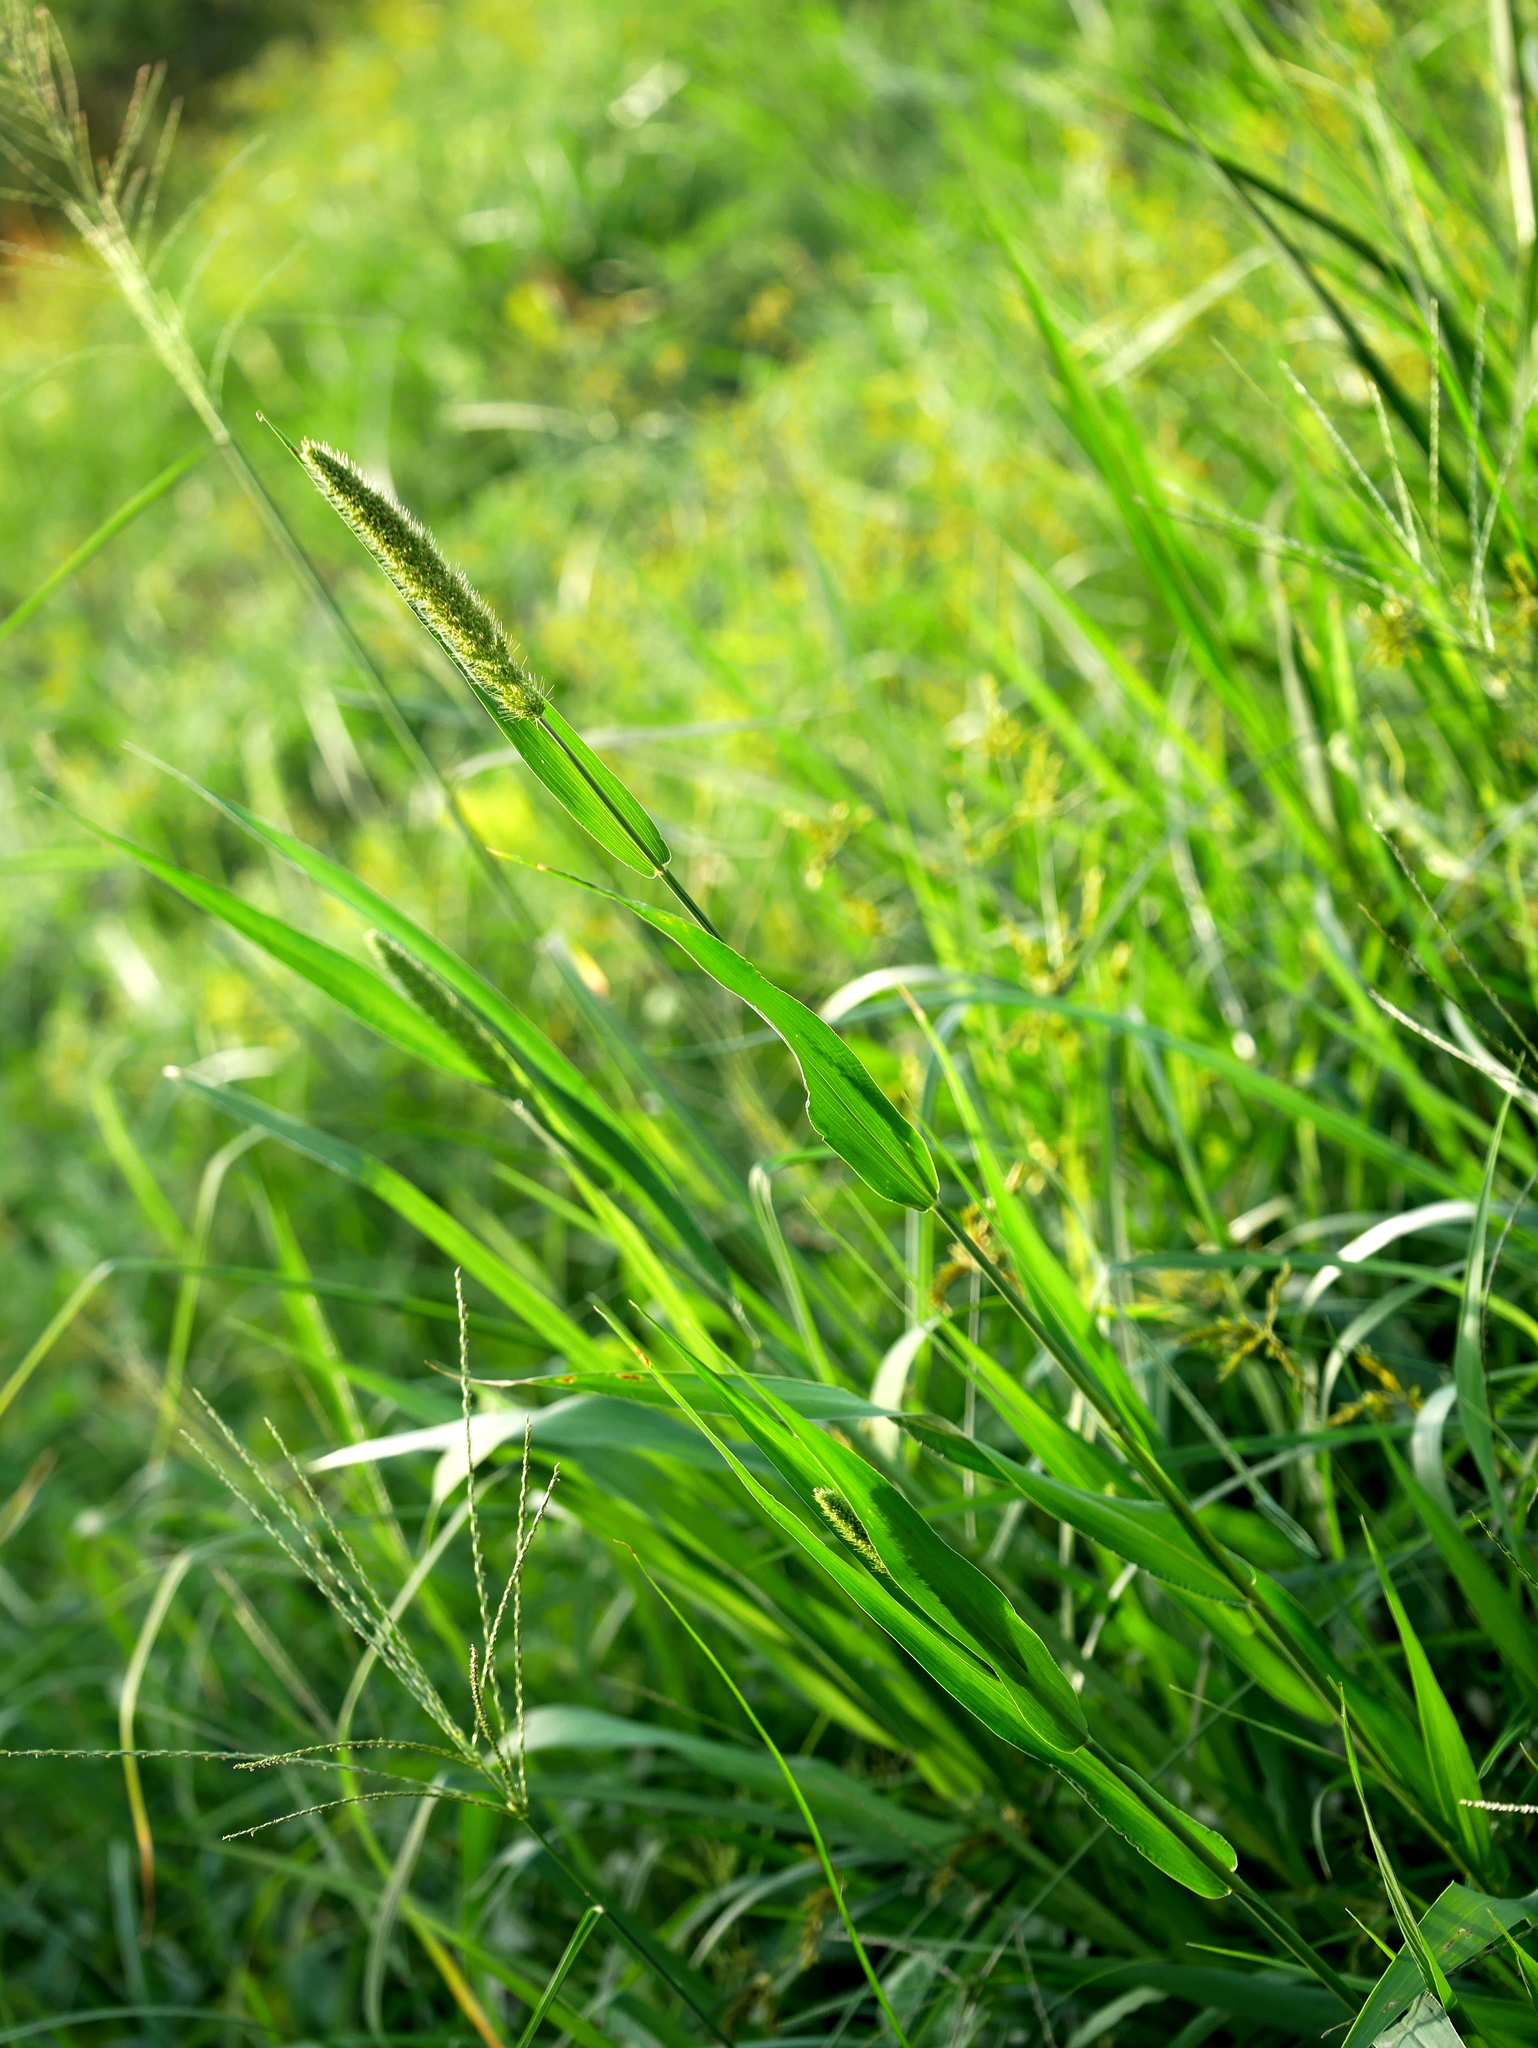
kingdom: Plantae
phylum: Tracheophyta
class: Liliopsida
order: Poales
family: Poaceae
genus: Setaria
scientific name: Setaria pumila
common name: Yellow bristle-grass
